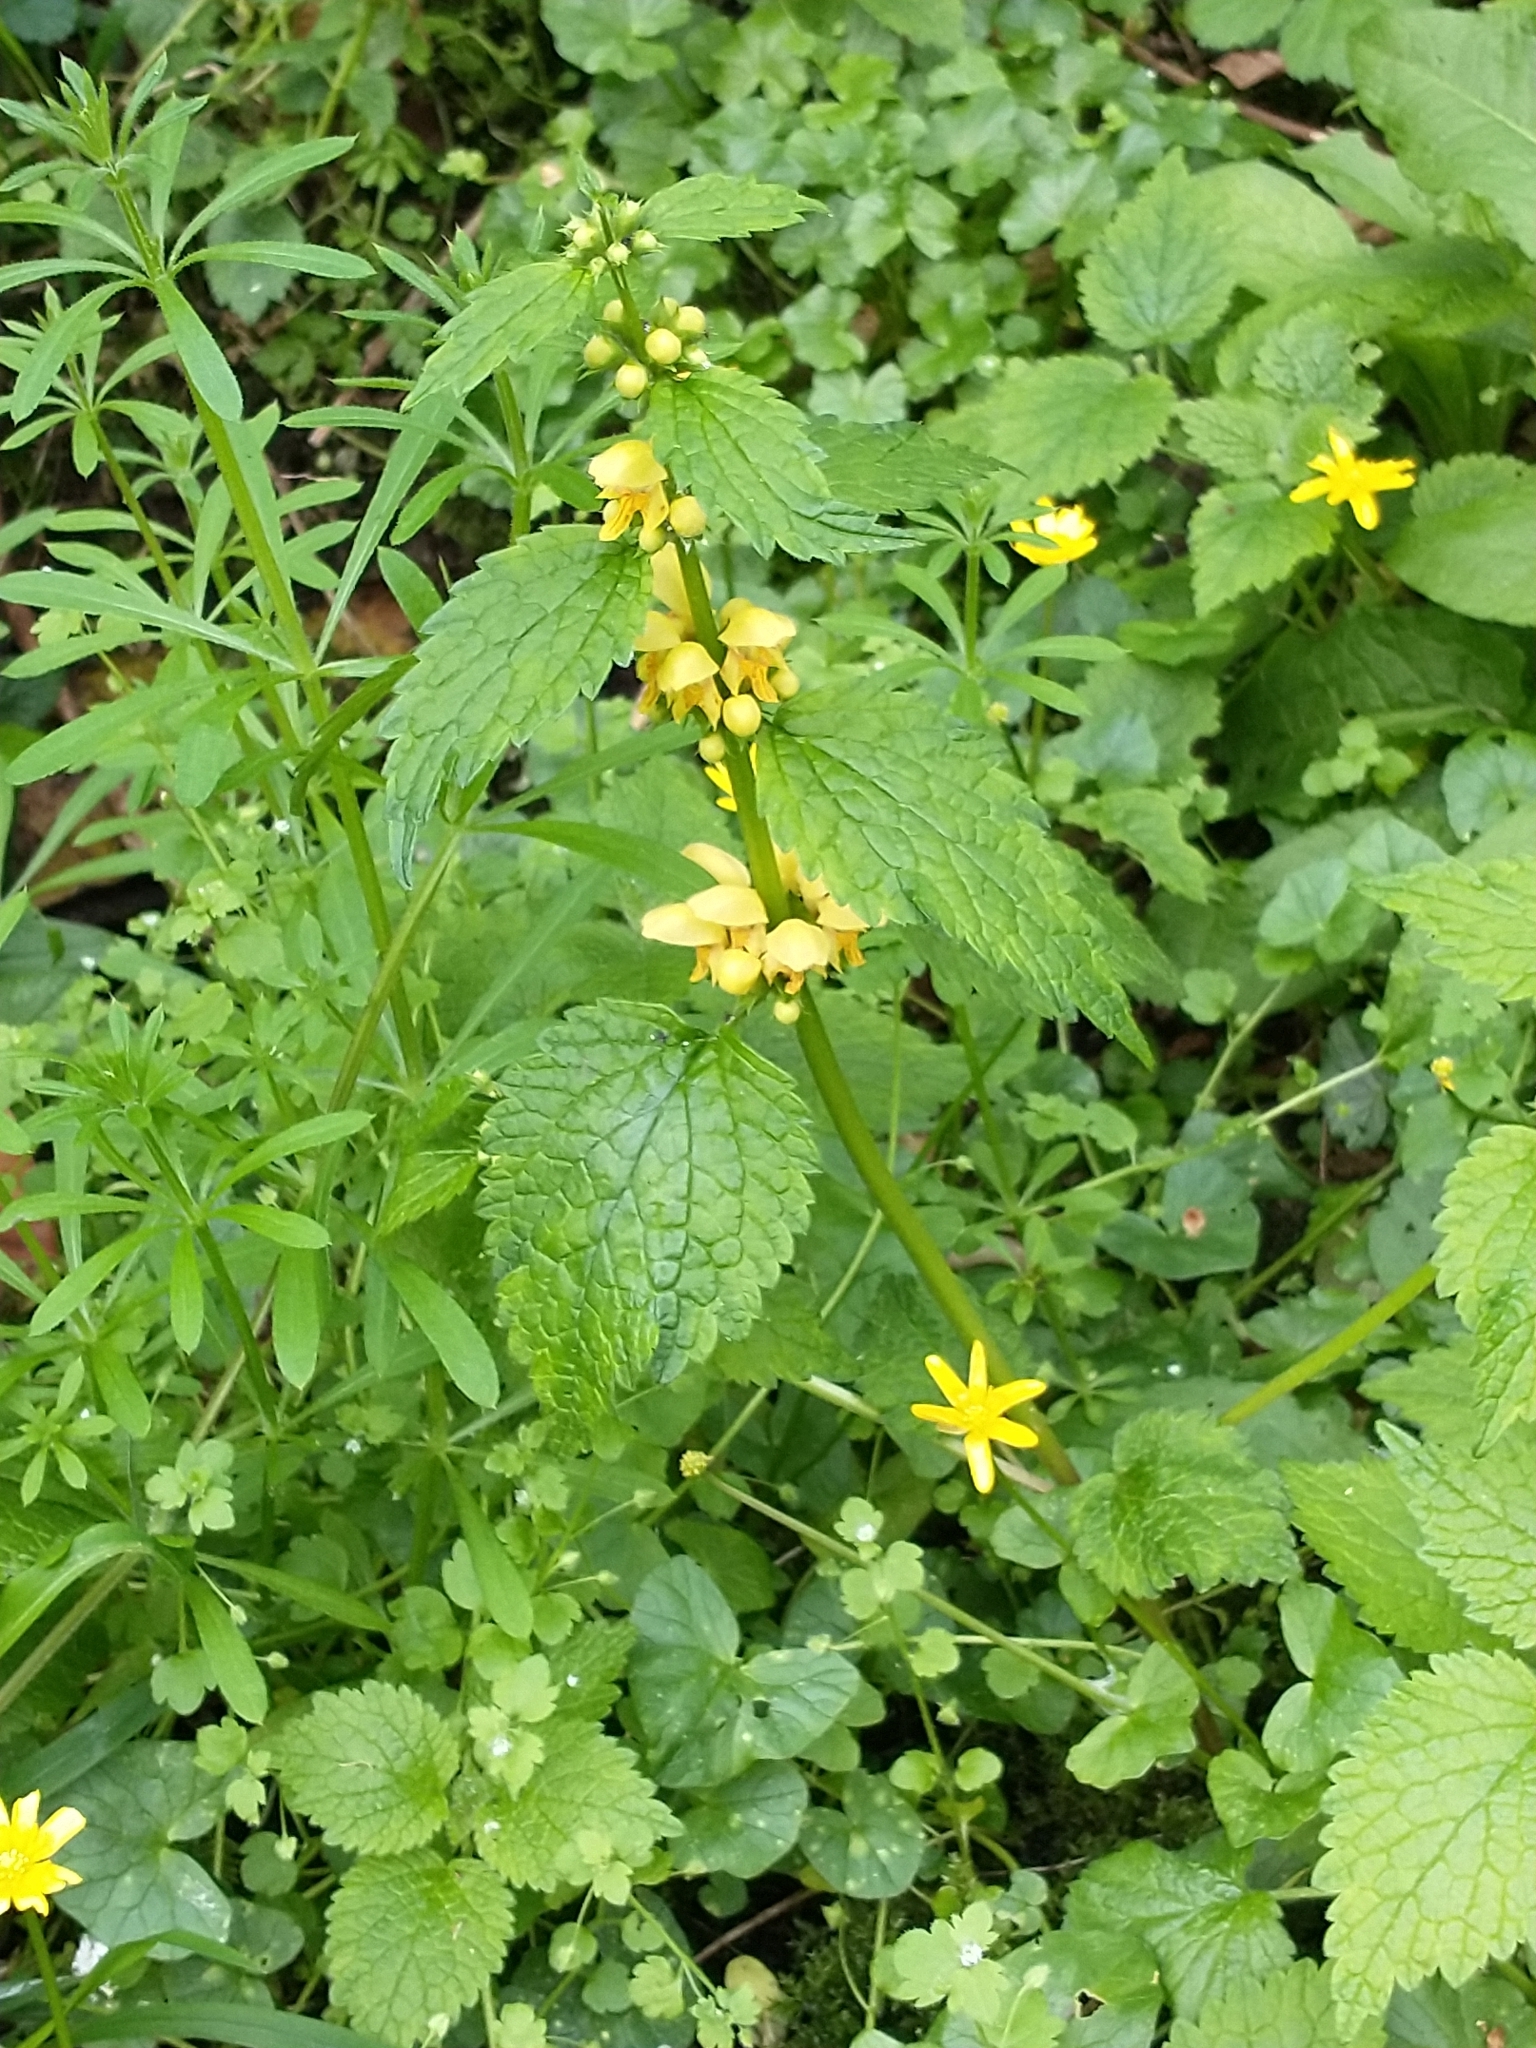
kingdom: Plantae
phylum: Tracheophyta
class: Magnoliopsida
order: Lamiales
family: Lamiaceae
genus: Lamium
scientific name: Lamium galeobdolon
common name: Yellow archangel
